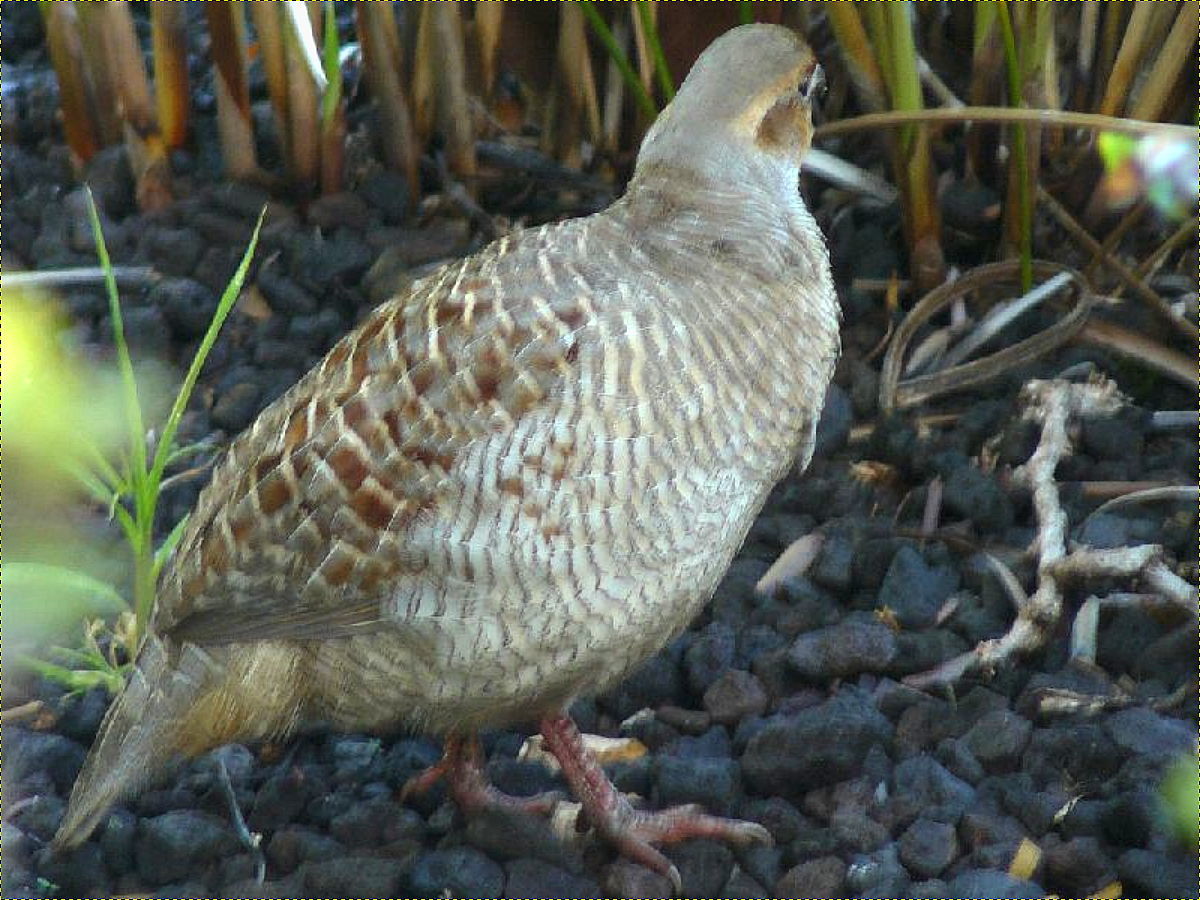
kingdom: Animalia
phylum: Chordata
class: Aves
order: Galliformes
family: Phasianidae
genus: Ortygornis
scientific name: Ortygornis pondicerianus
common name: Grey francolin
